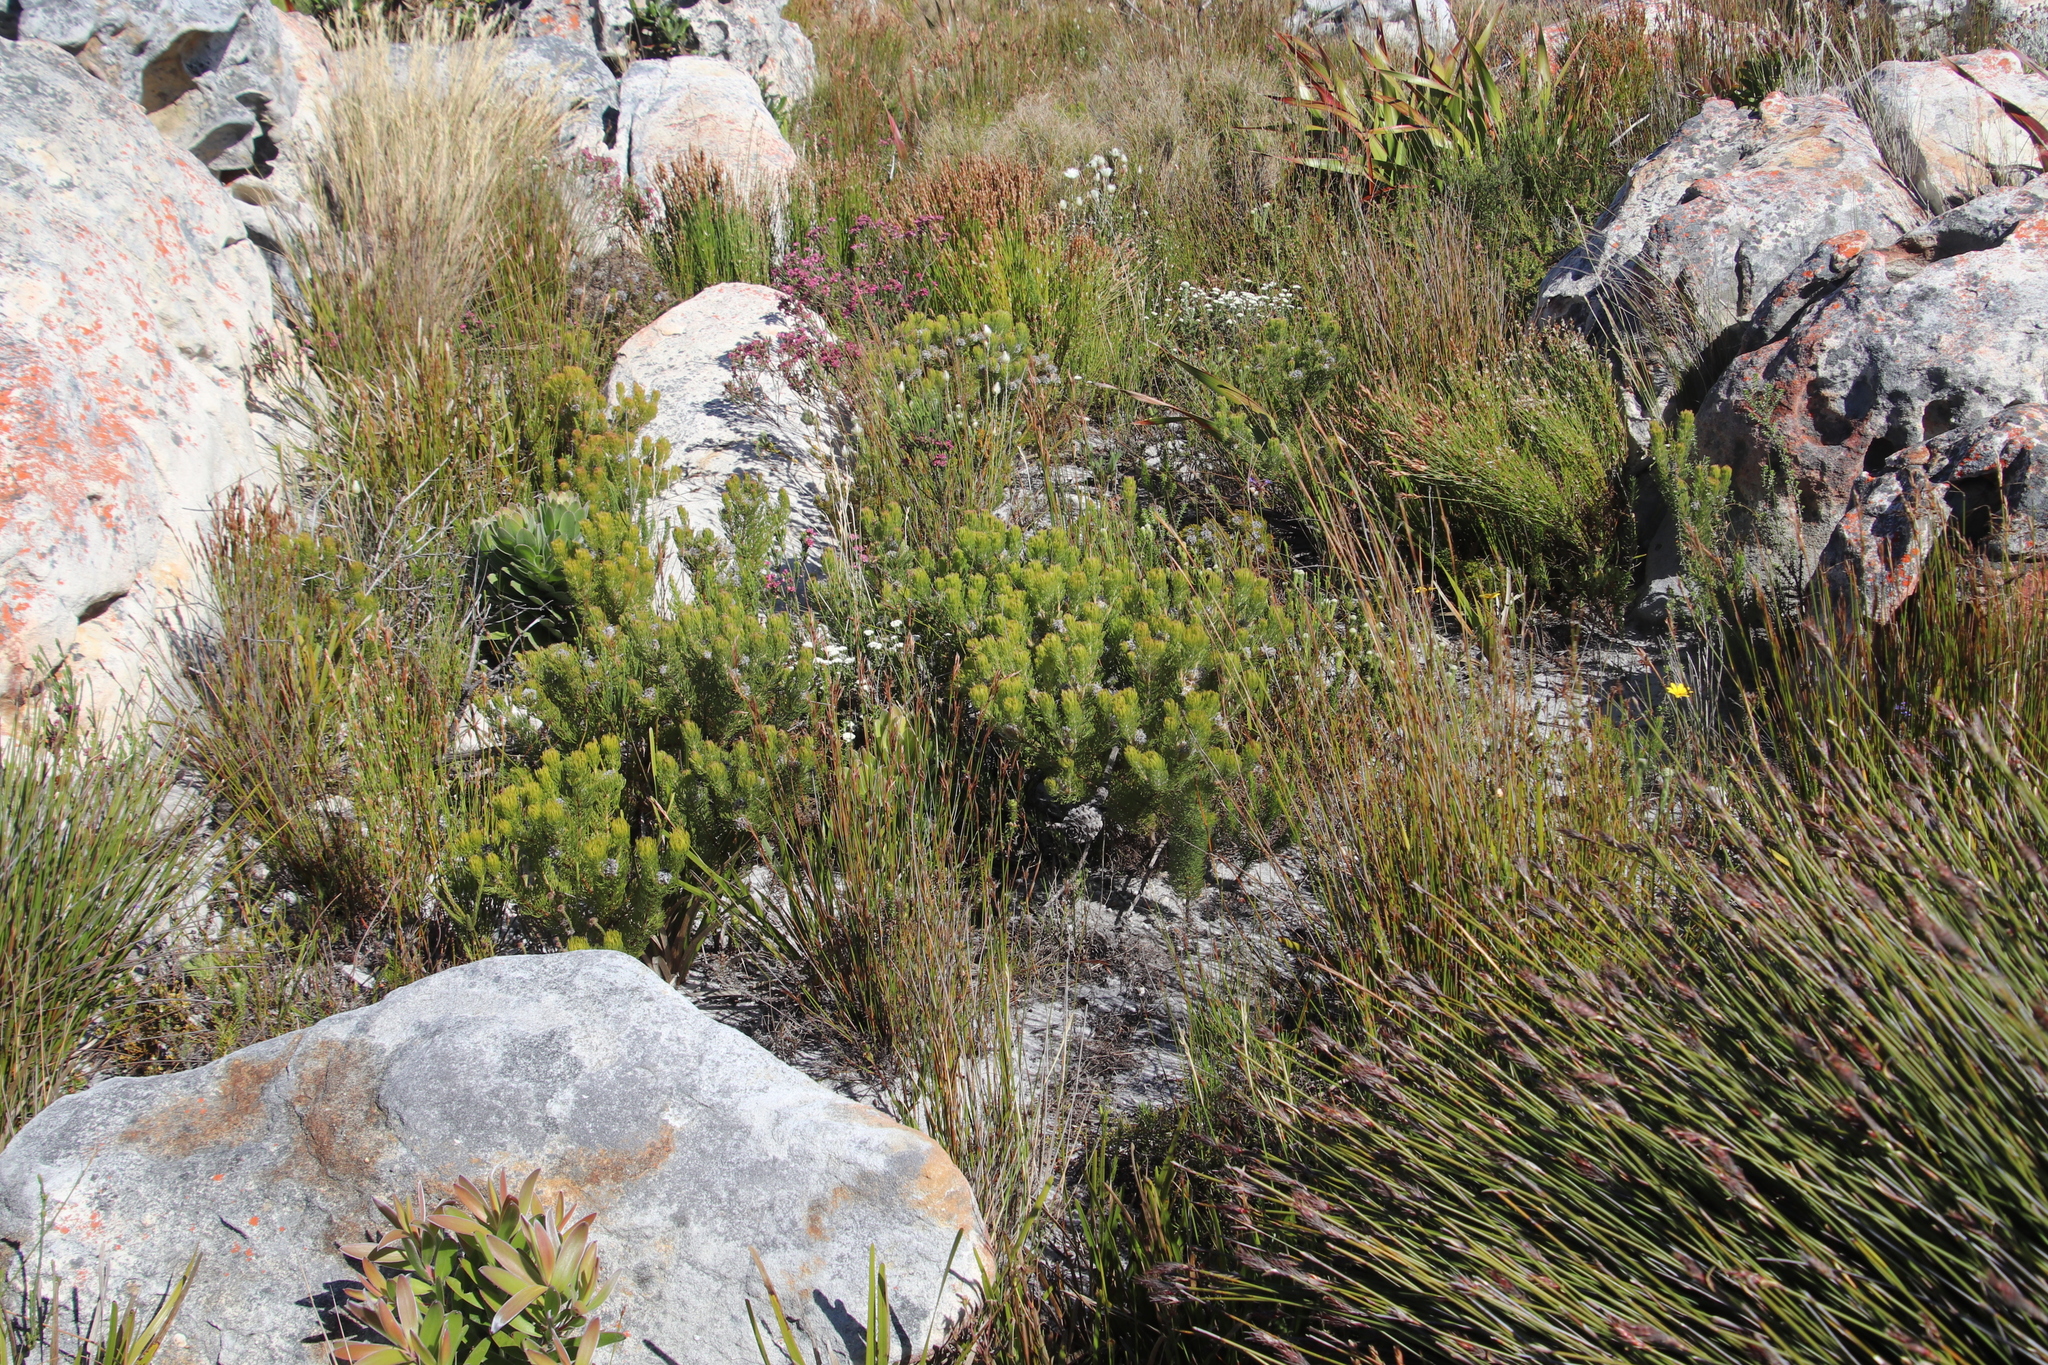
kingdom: Plantae
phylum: Tracheophyta
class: Magnoliopsida
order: Proteales
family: Proteaceae
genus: Serruria
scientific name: Serruria villosa
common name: Golden spiderhead
